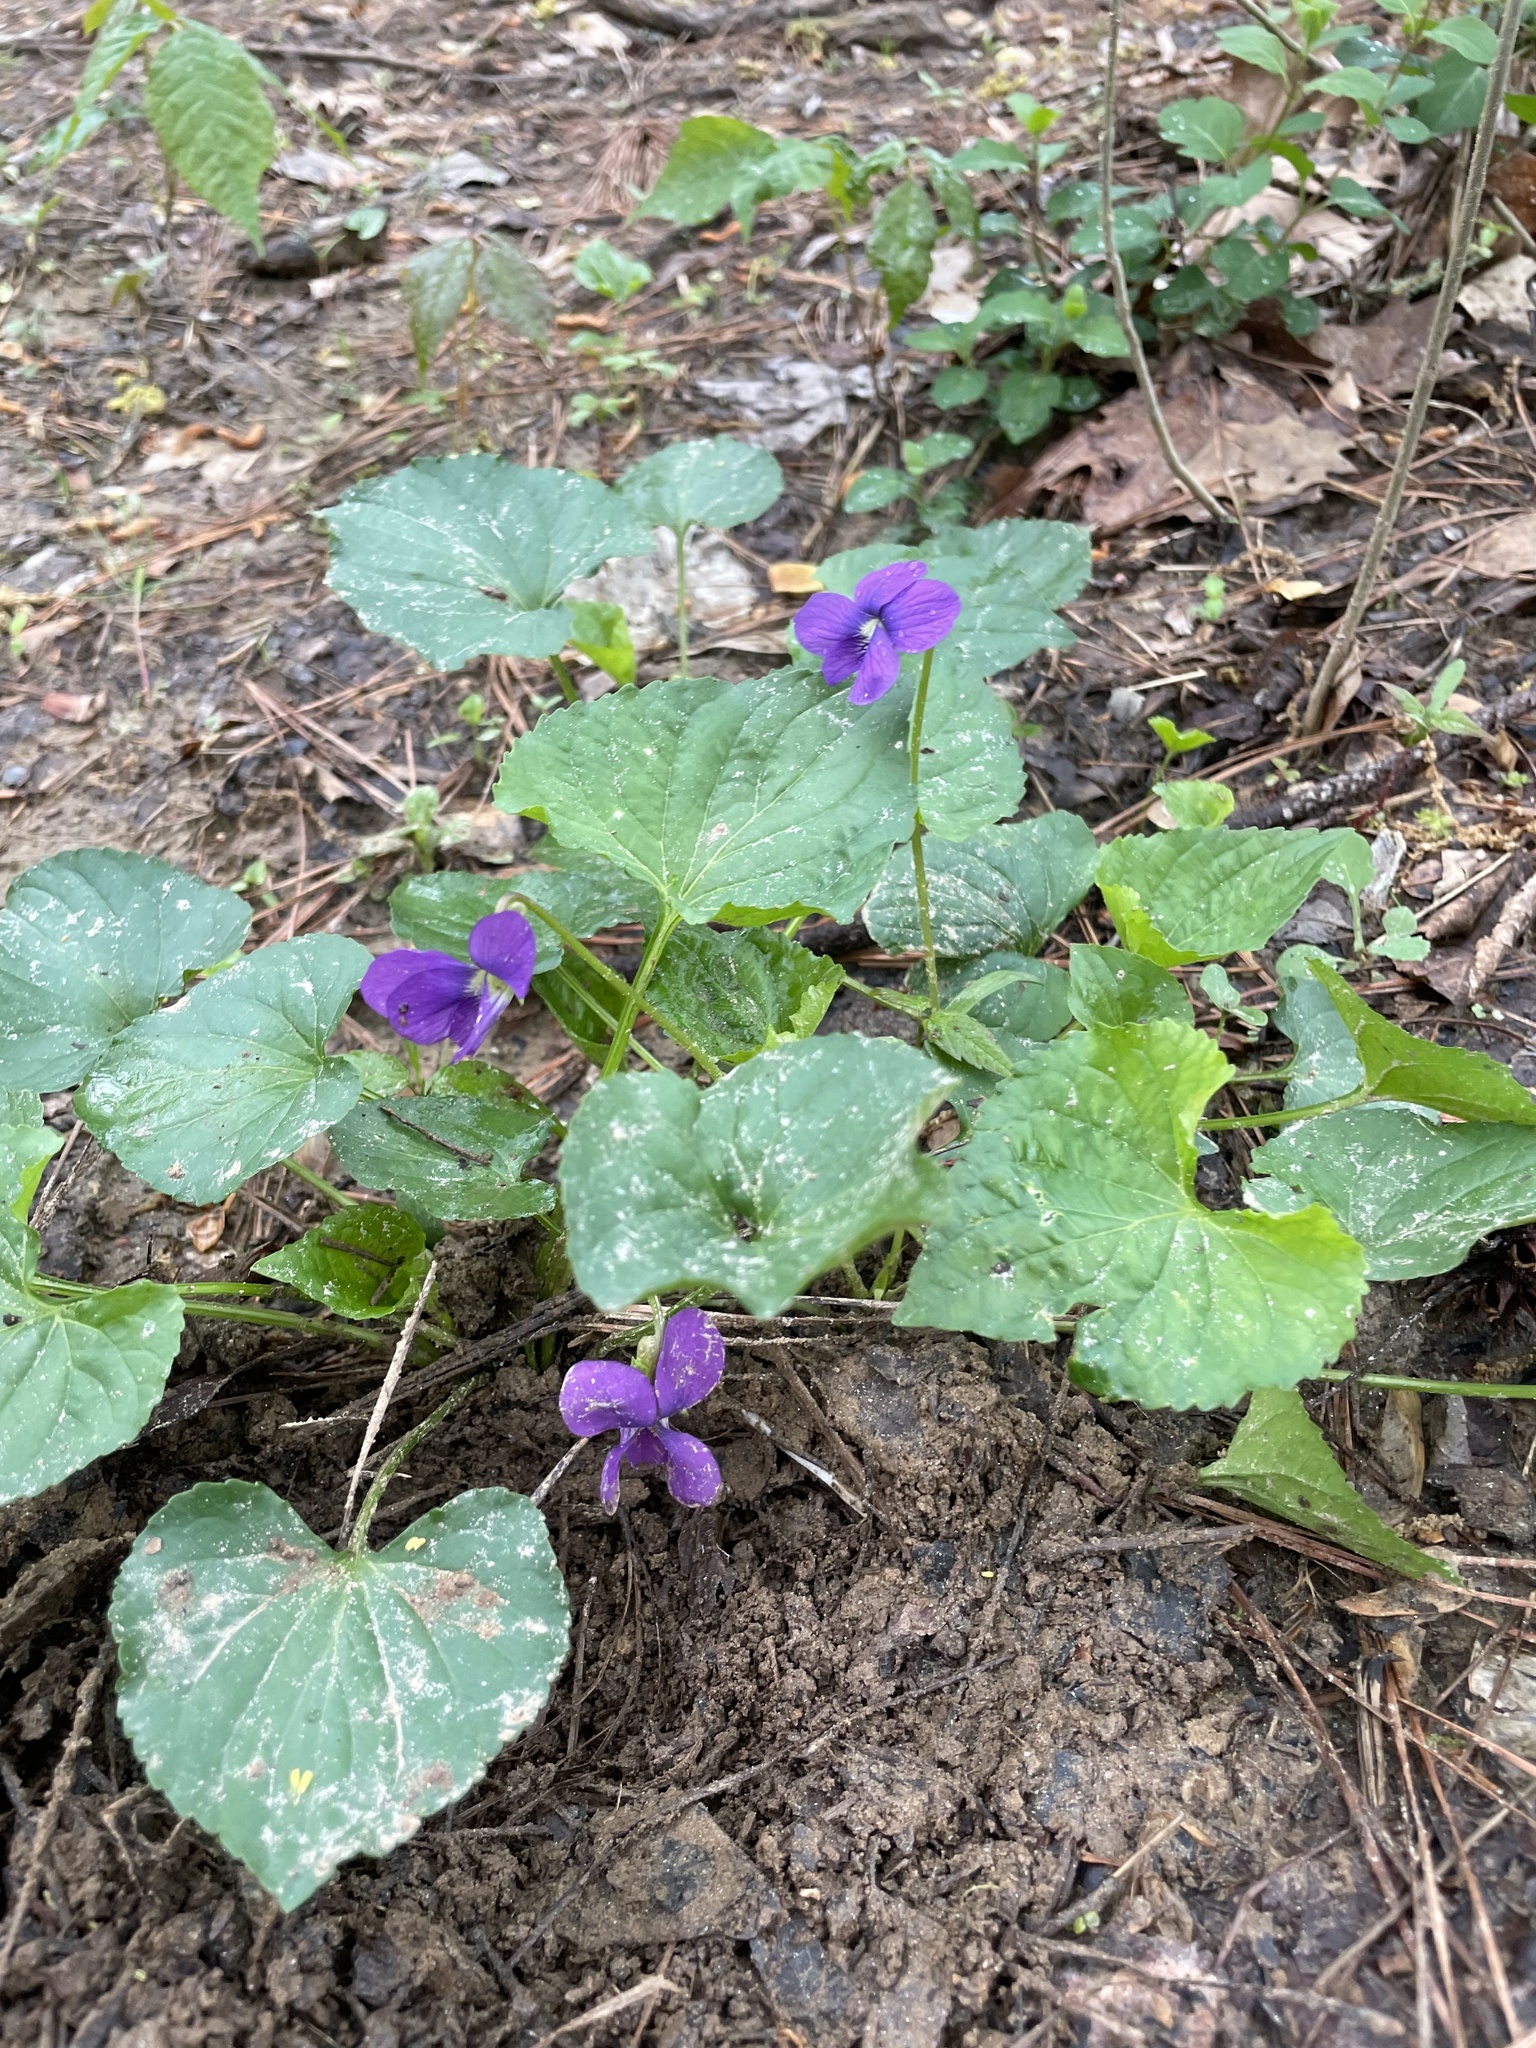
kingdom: Plantae
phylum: Tracheophyta
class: Magnoliopsida
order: Malpighiales
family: Violaceae
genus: Viola
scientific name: Viola sororia
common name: Dooryard violet
